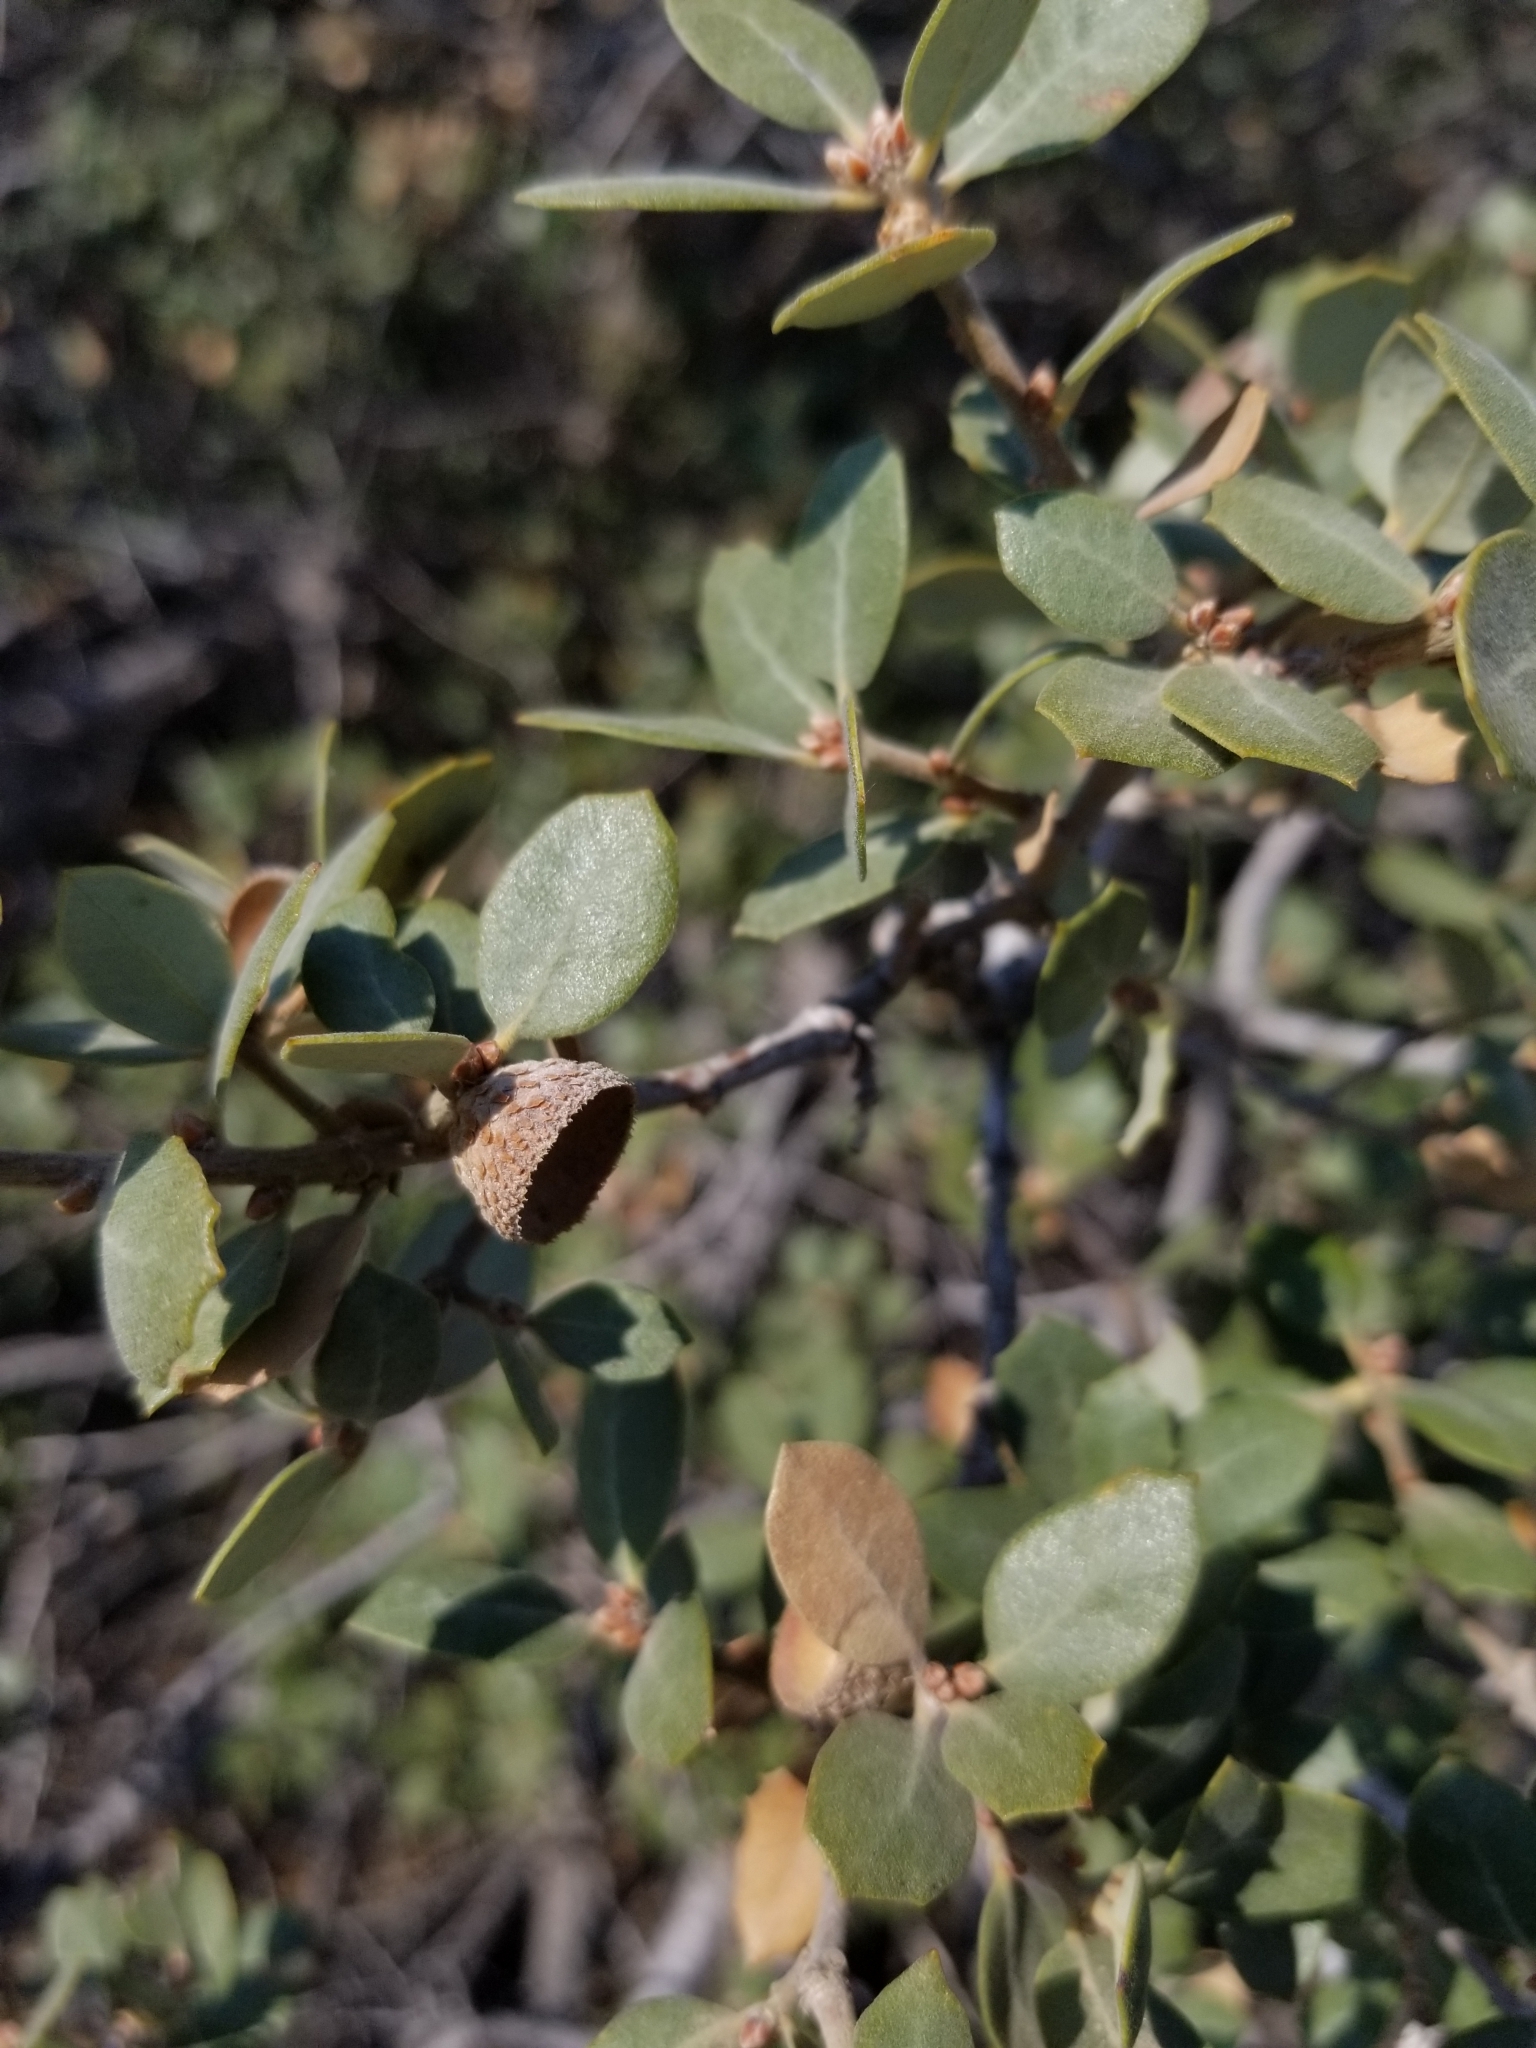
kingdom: Plantae
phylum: Tracheophyta
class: Magnoliopsida
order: Fagales
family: Fagaceae
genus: Quercus
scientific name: Quercus cornelius-mulleri
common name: Muller oak
